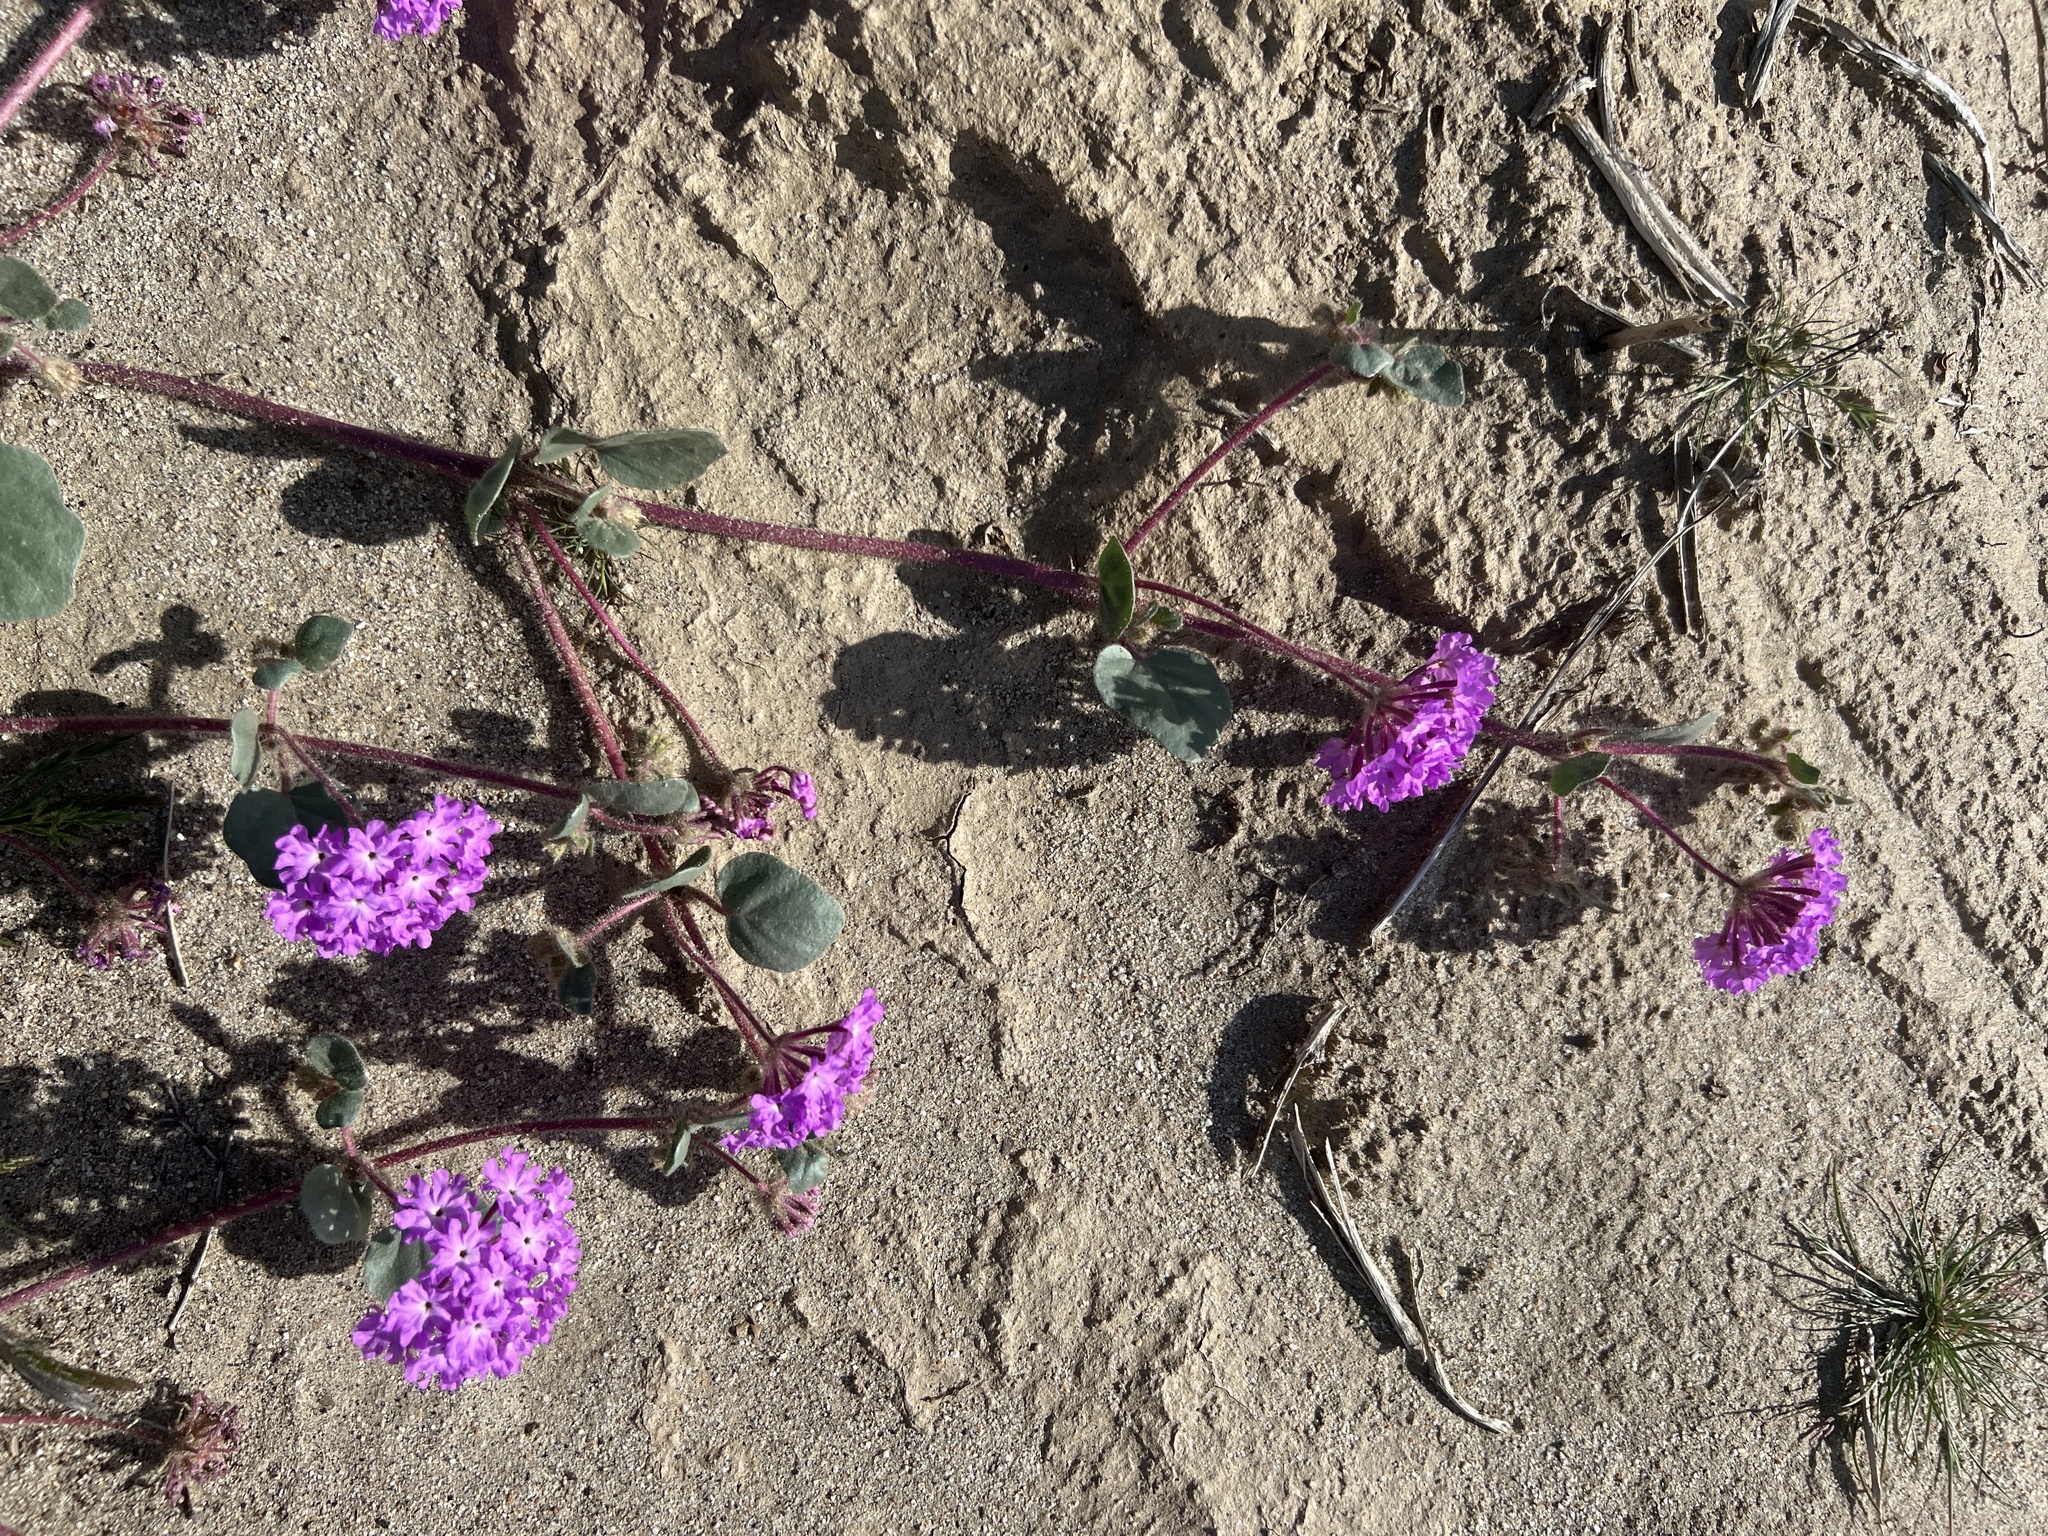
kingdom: Plantae
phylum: Tracheophyta
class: Magnoliopsida
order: Caryophyllales
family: Nyctaginaceae
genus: Abronia
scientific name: Abronia villosa
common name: Desert sand-verbena
